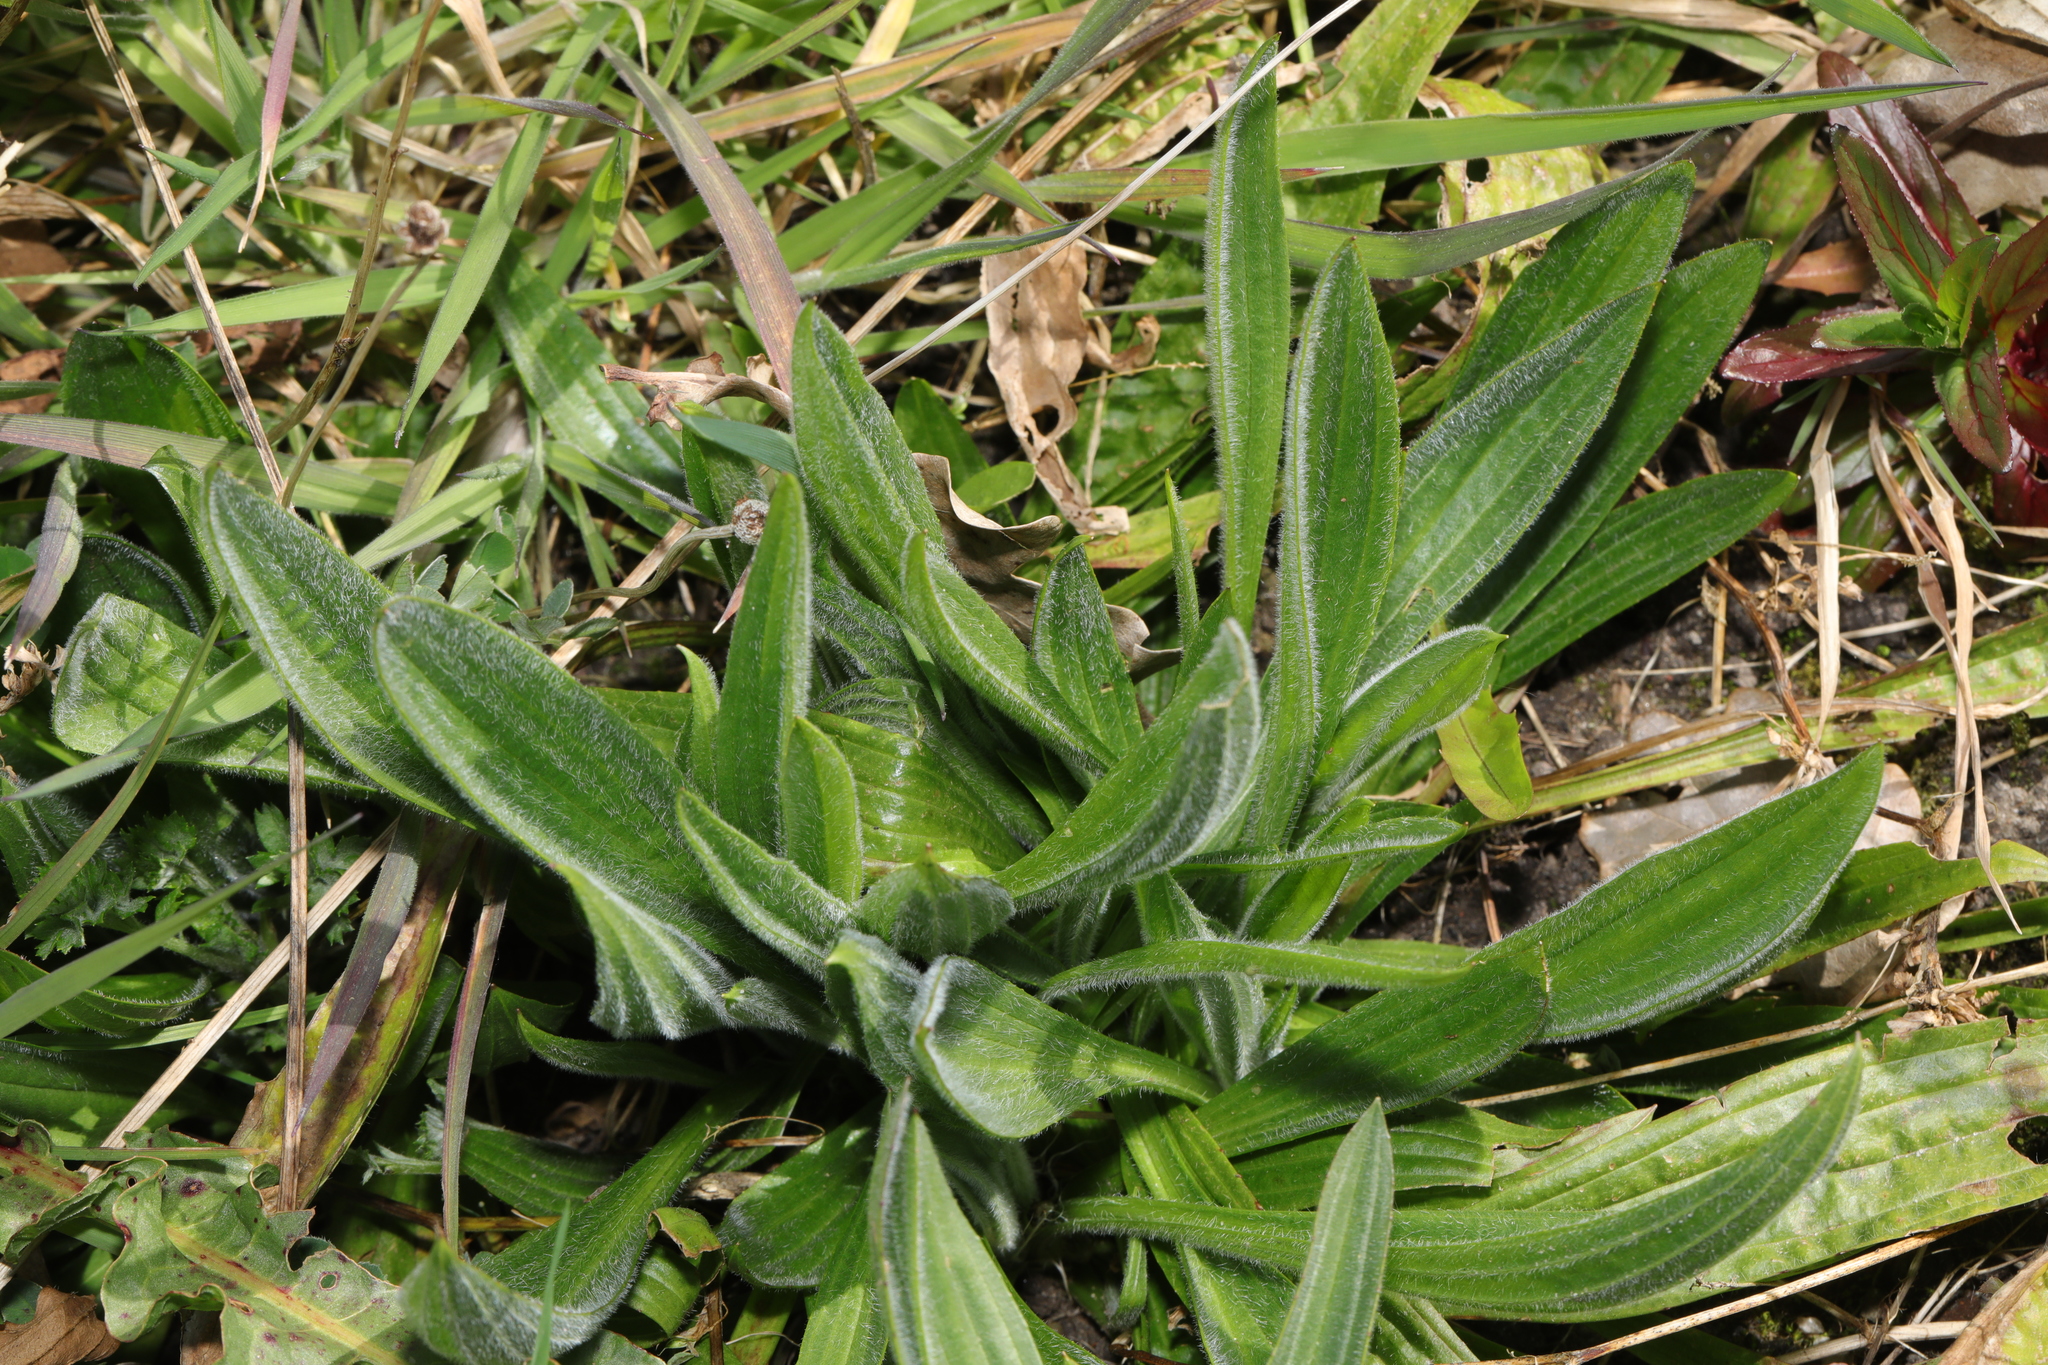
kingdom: Plantae
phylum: Tracheophyta
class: Magnoliopsida
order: Lamiales
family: Plantaginaceae
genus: Plantago
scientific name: Plantago lanceolata
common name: Ribwort plantain
